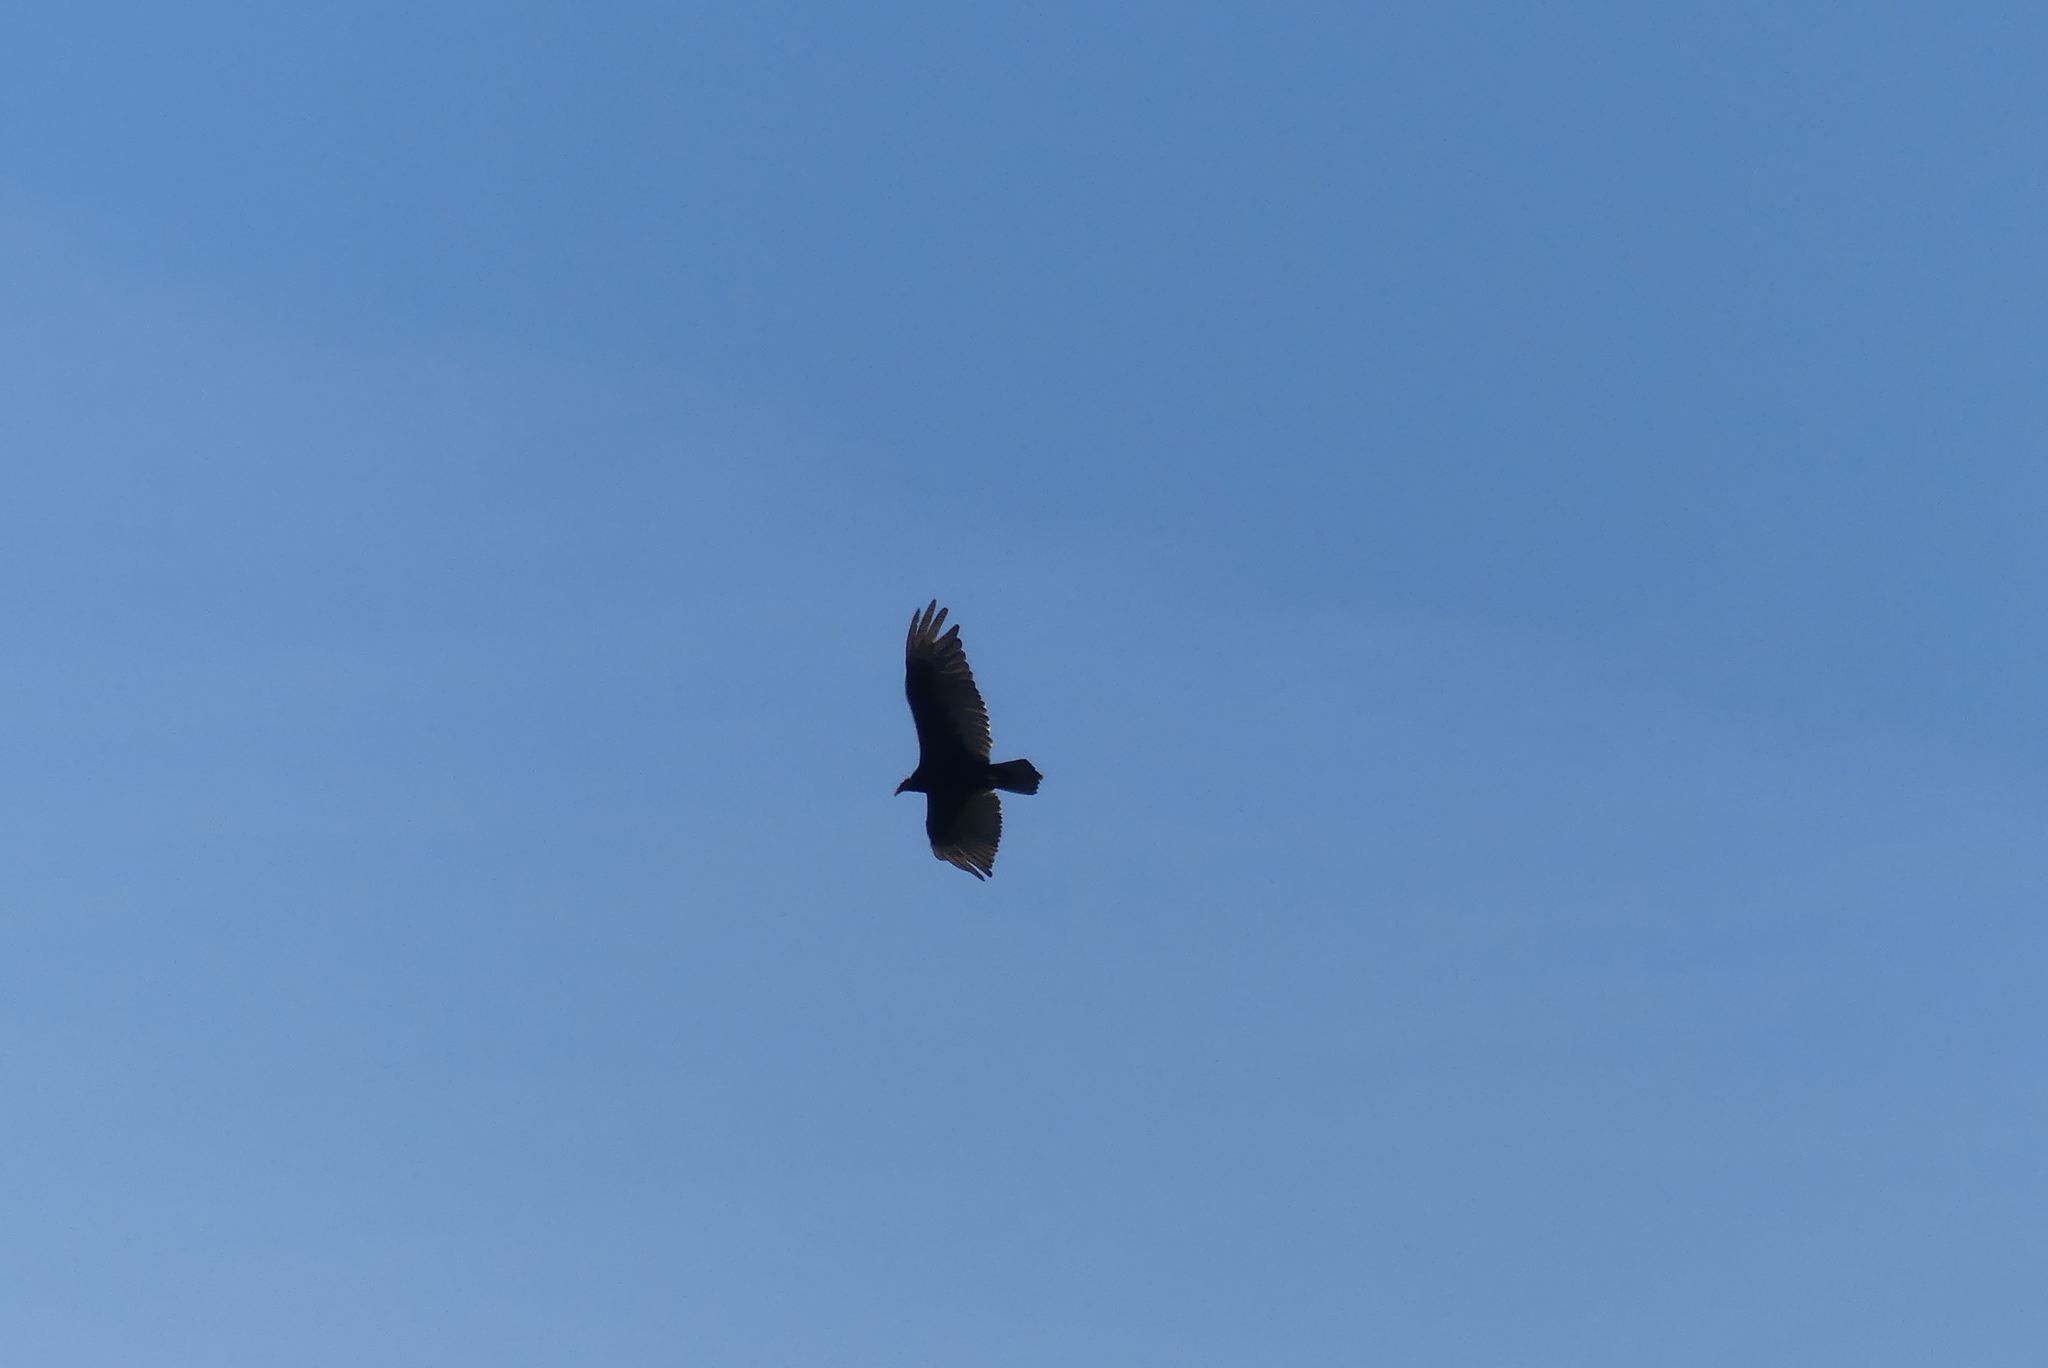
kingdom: Animalia
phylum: Chordata
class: Aves
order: Accipitriformes
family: Cathartidae
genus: Cathartes
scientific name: Cathartes aura
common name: Turkey vulture
